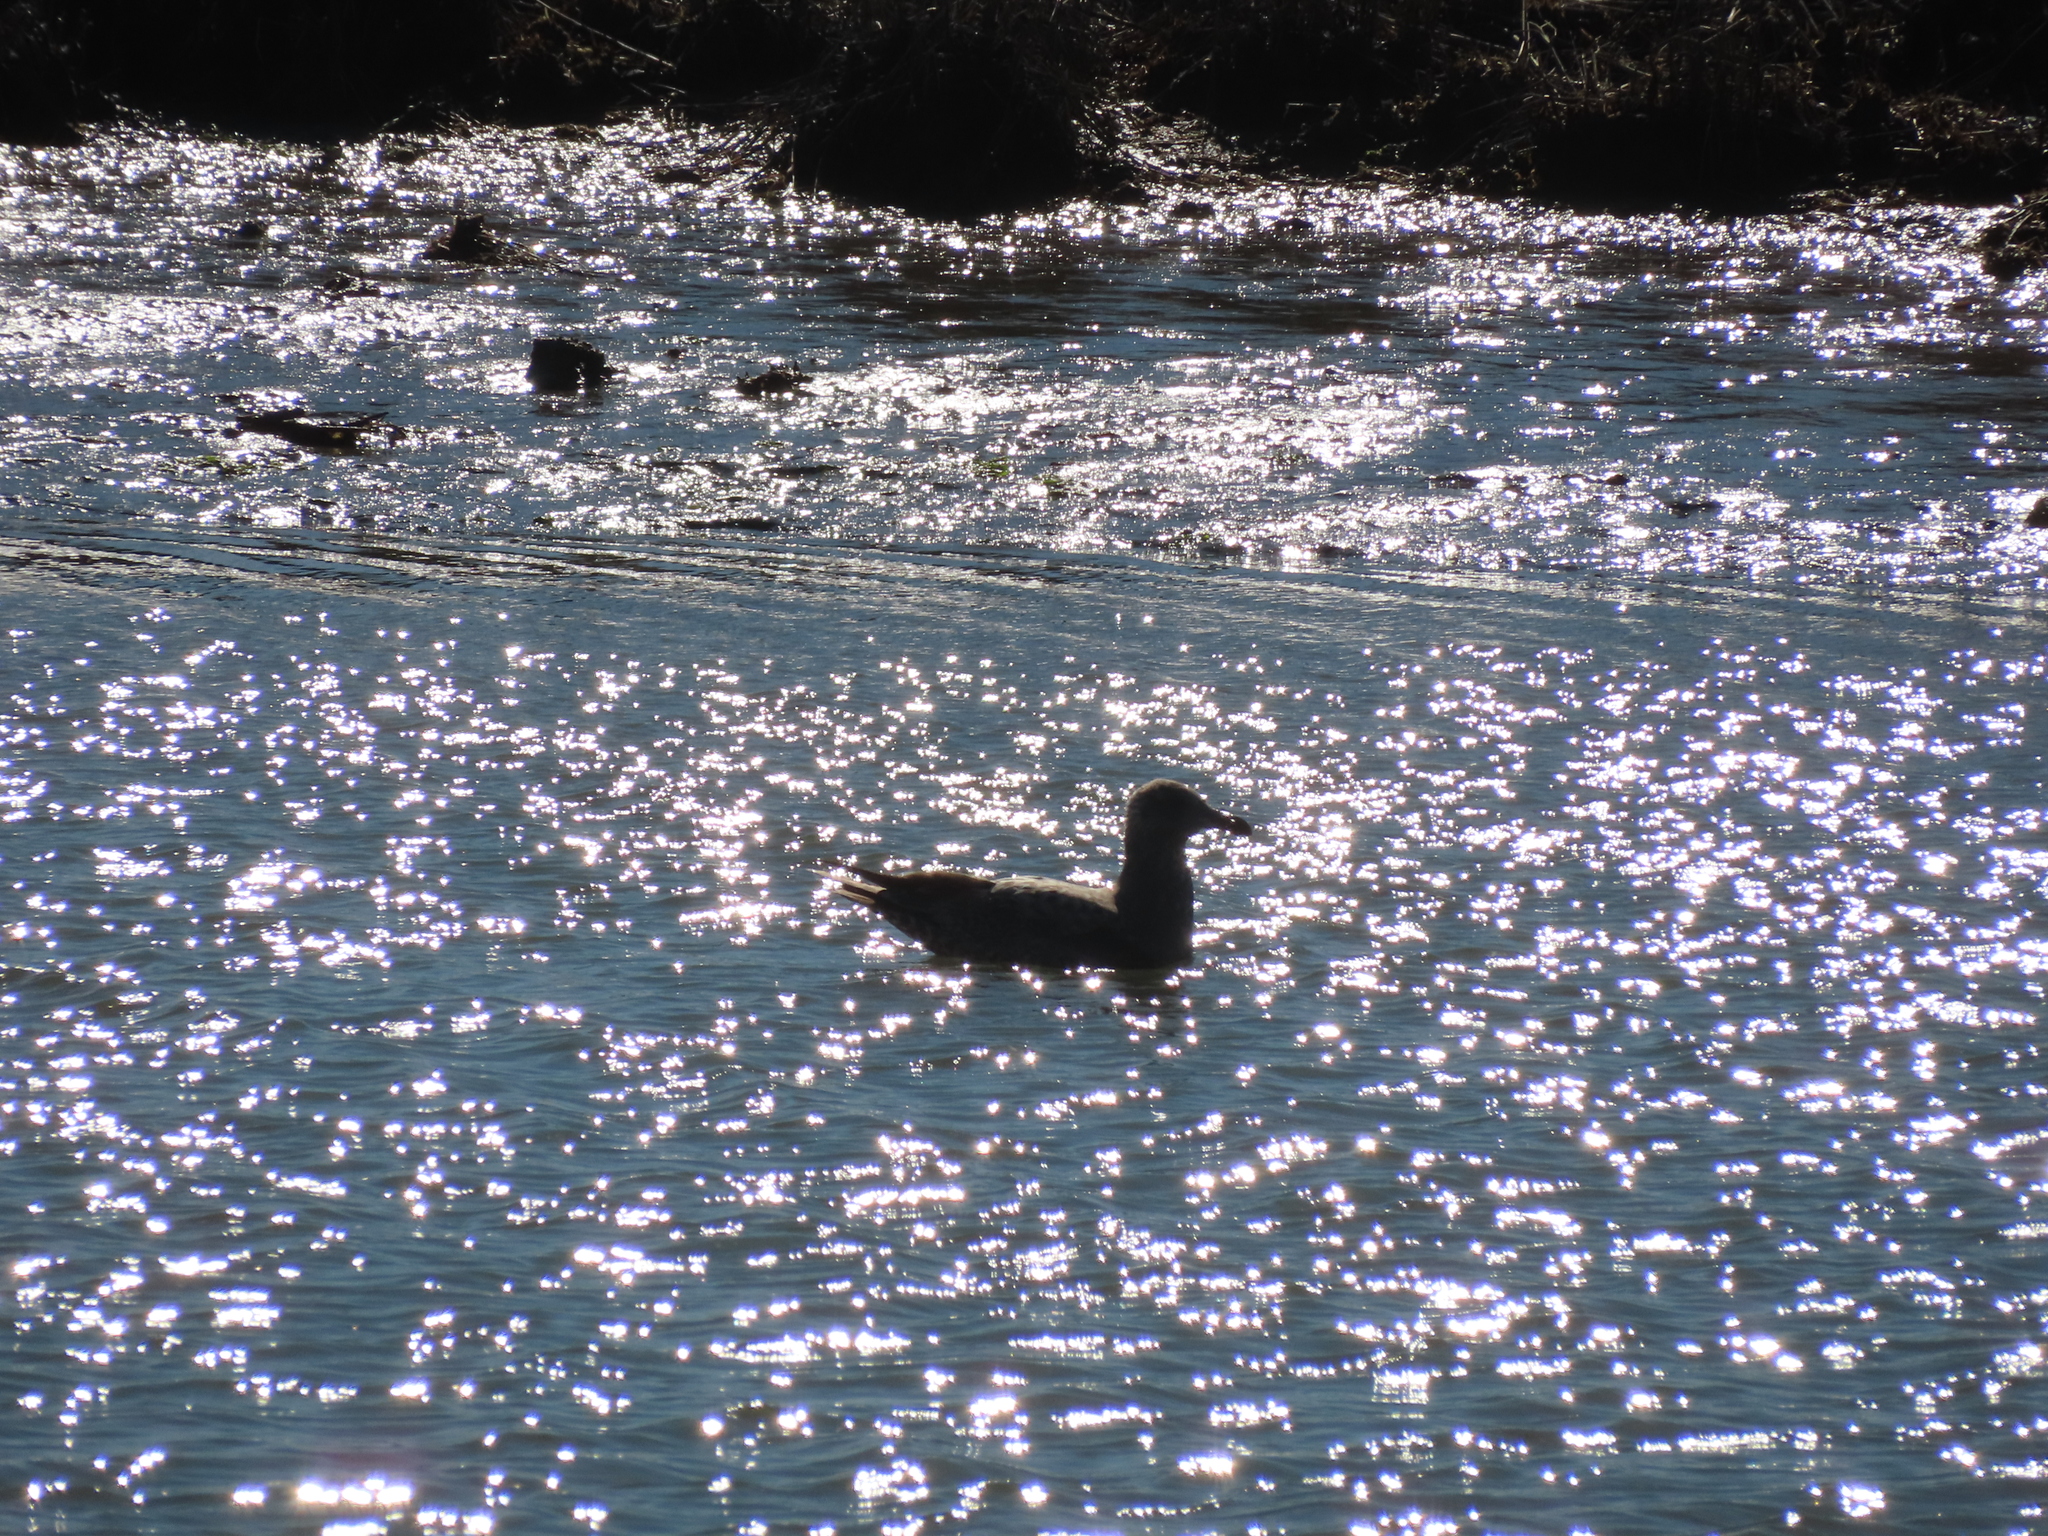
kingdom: Animalia
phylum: Chordata
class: Aves
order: Charadriiformes
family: Laridae
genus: Larus
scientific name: Larus argentatus
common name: Herring gull
